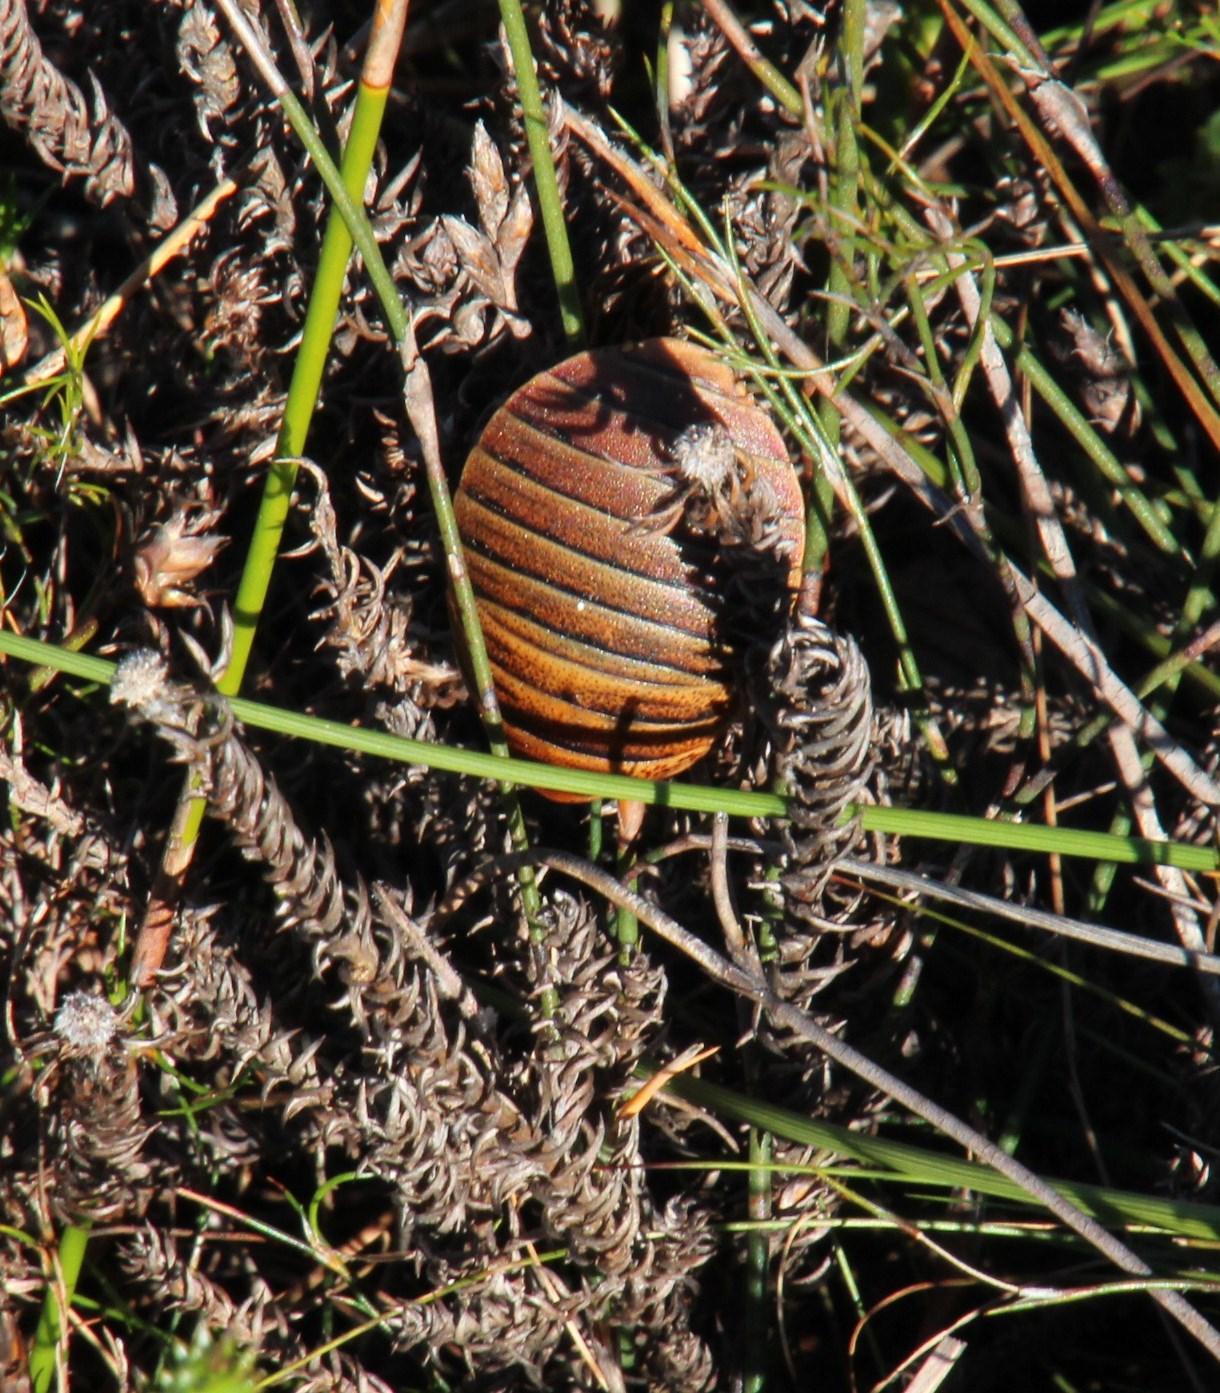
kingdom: Animalia
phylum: Arthropoda
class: Insecta
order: Blattodea
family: Blaberidae
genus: Aptera
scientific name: Aptera fusca
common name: Cape mountain cockroach
